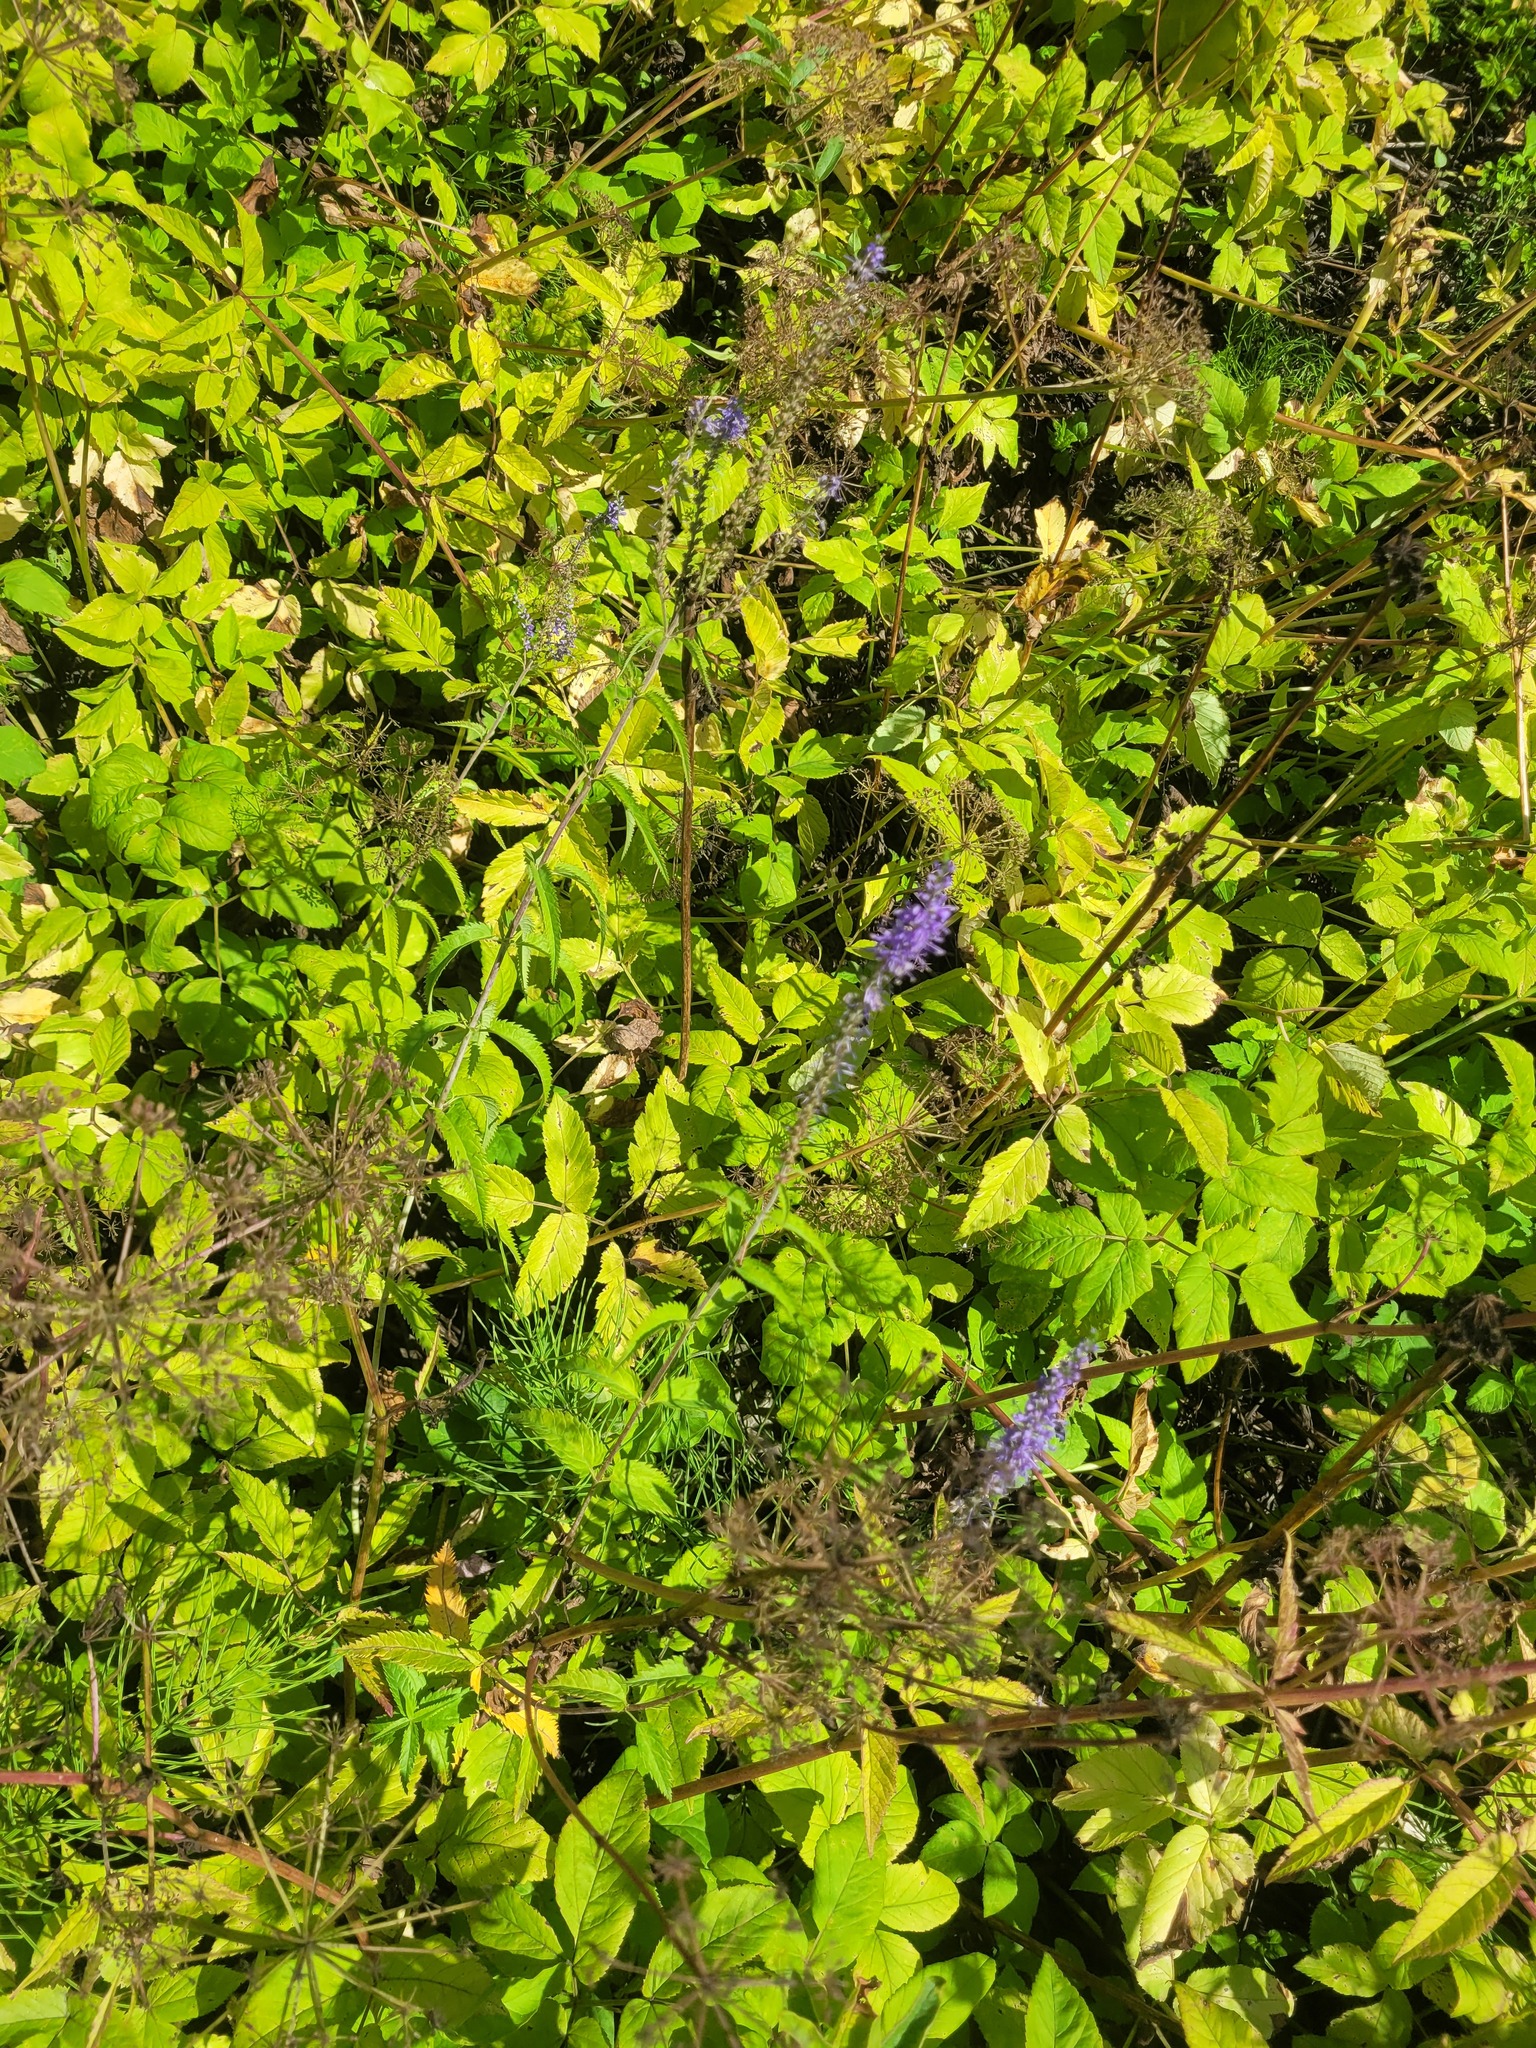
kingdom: Plantae
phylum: Tracheophyta
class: Magnoliopsida
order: Lamiales
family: Plantaginaceae
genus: Veronica
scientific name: Veronica longifolia
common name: Garden speedwell
